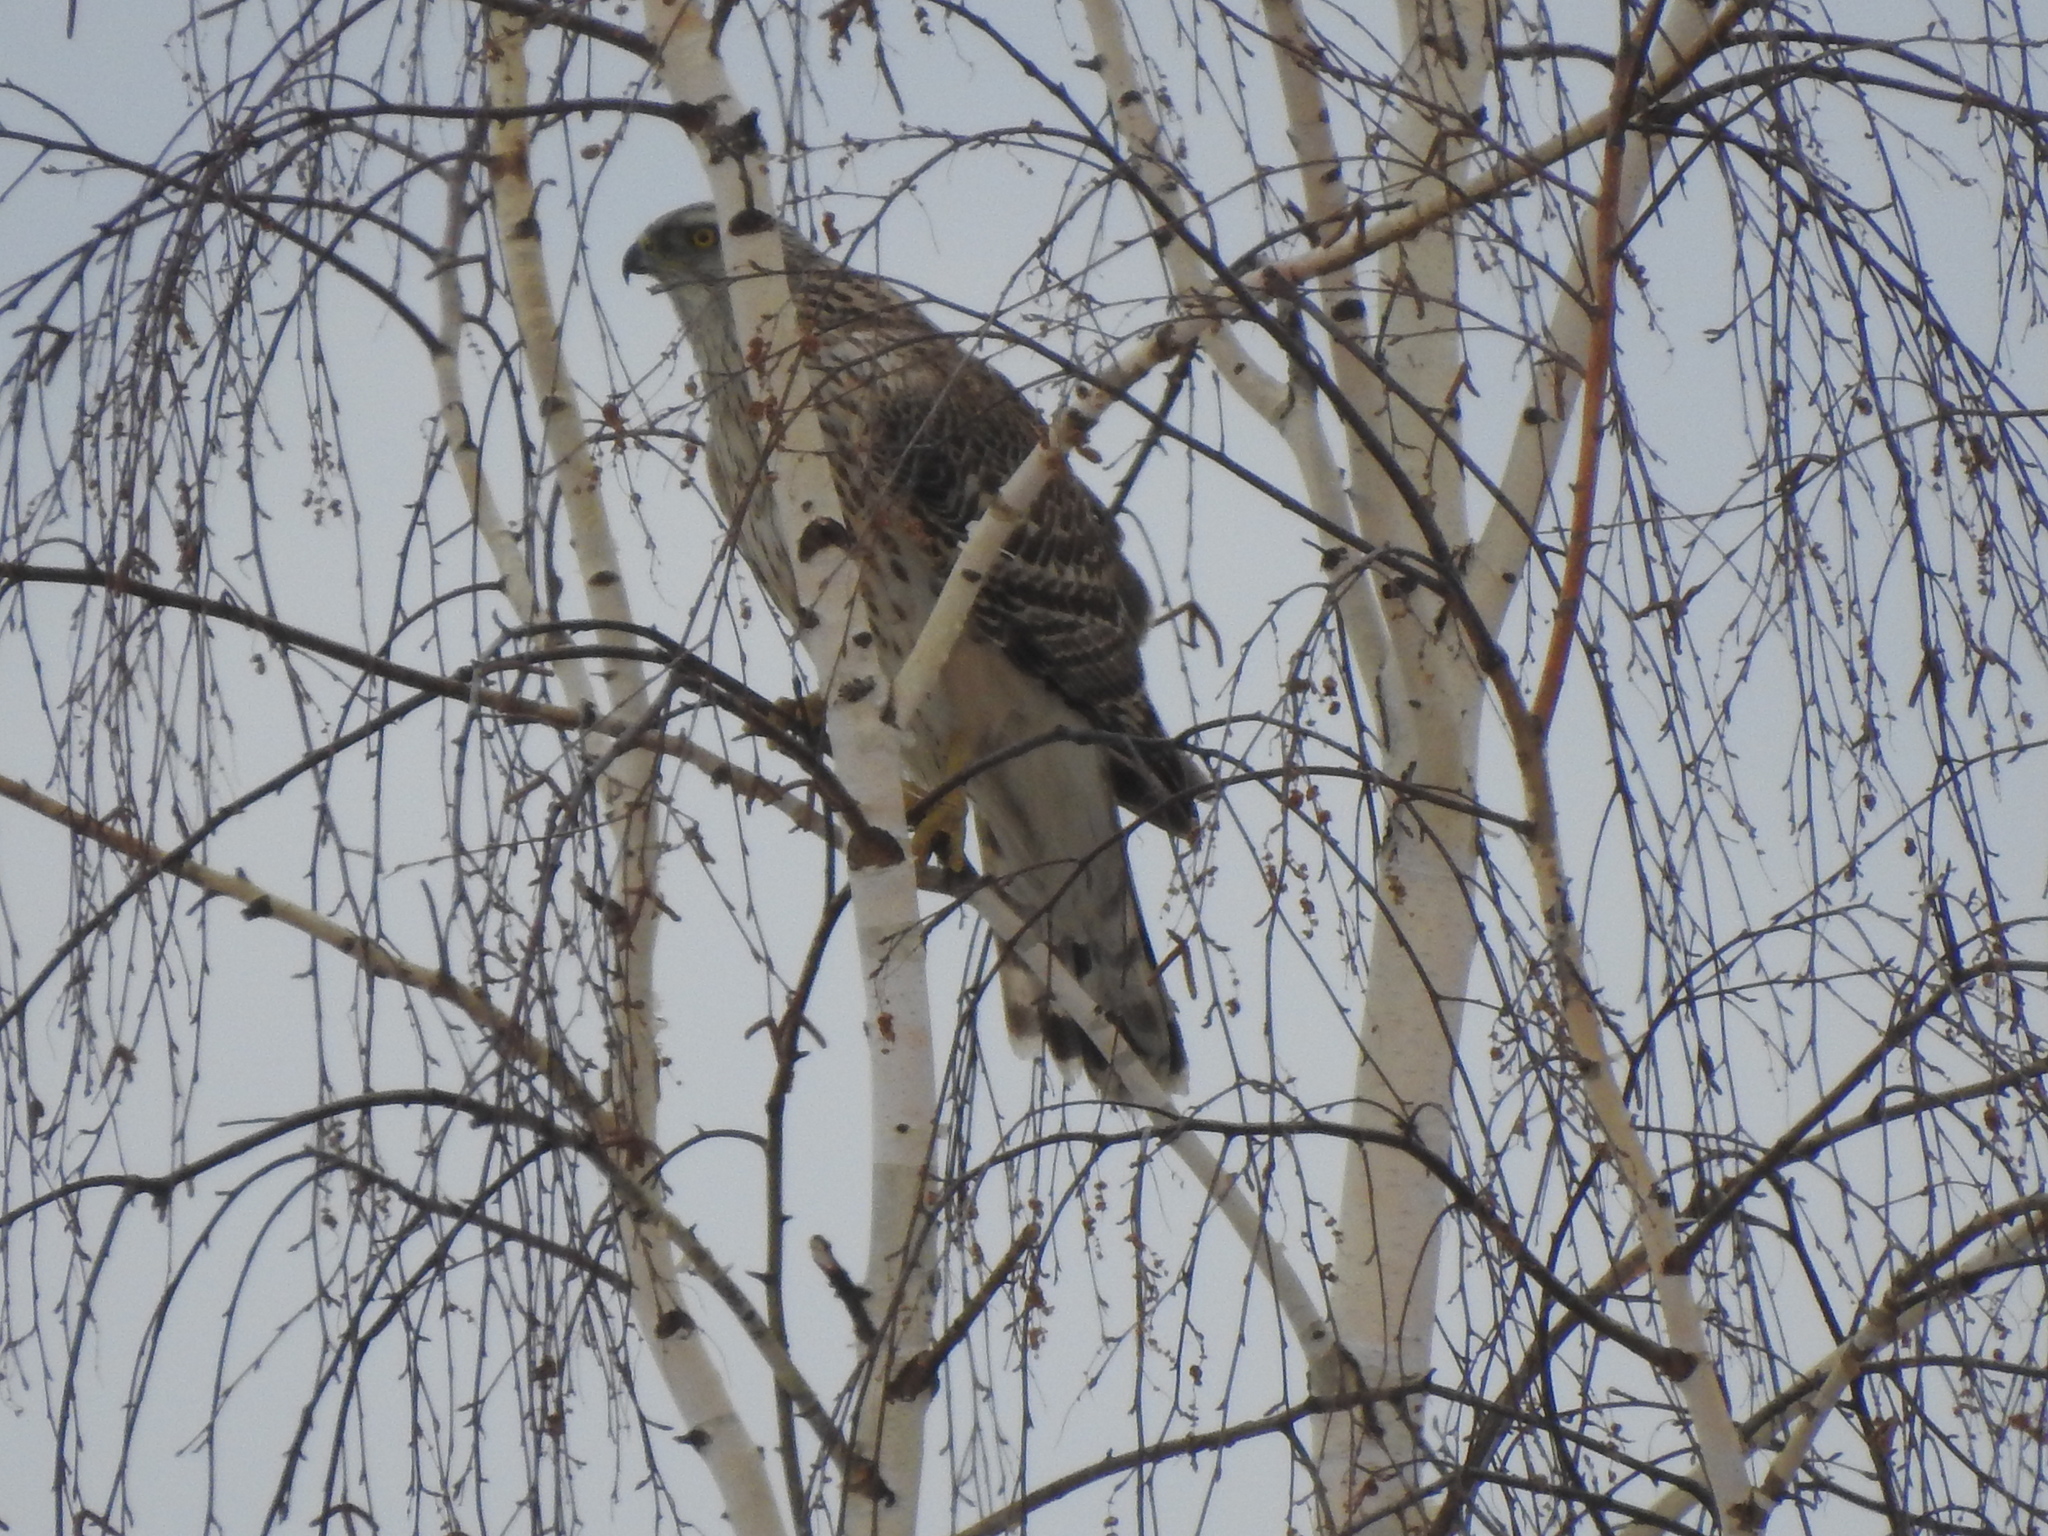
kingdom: Animalia
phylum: Chordata
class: Aves
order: Accipitriformes
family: Accipitridae
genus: Accipiter
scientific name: Accipiter gentilis
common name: Northern goshawk
